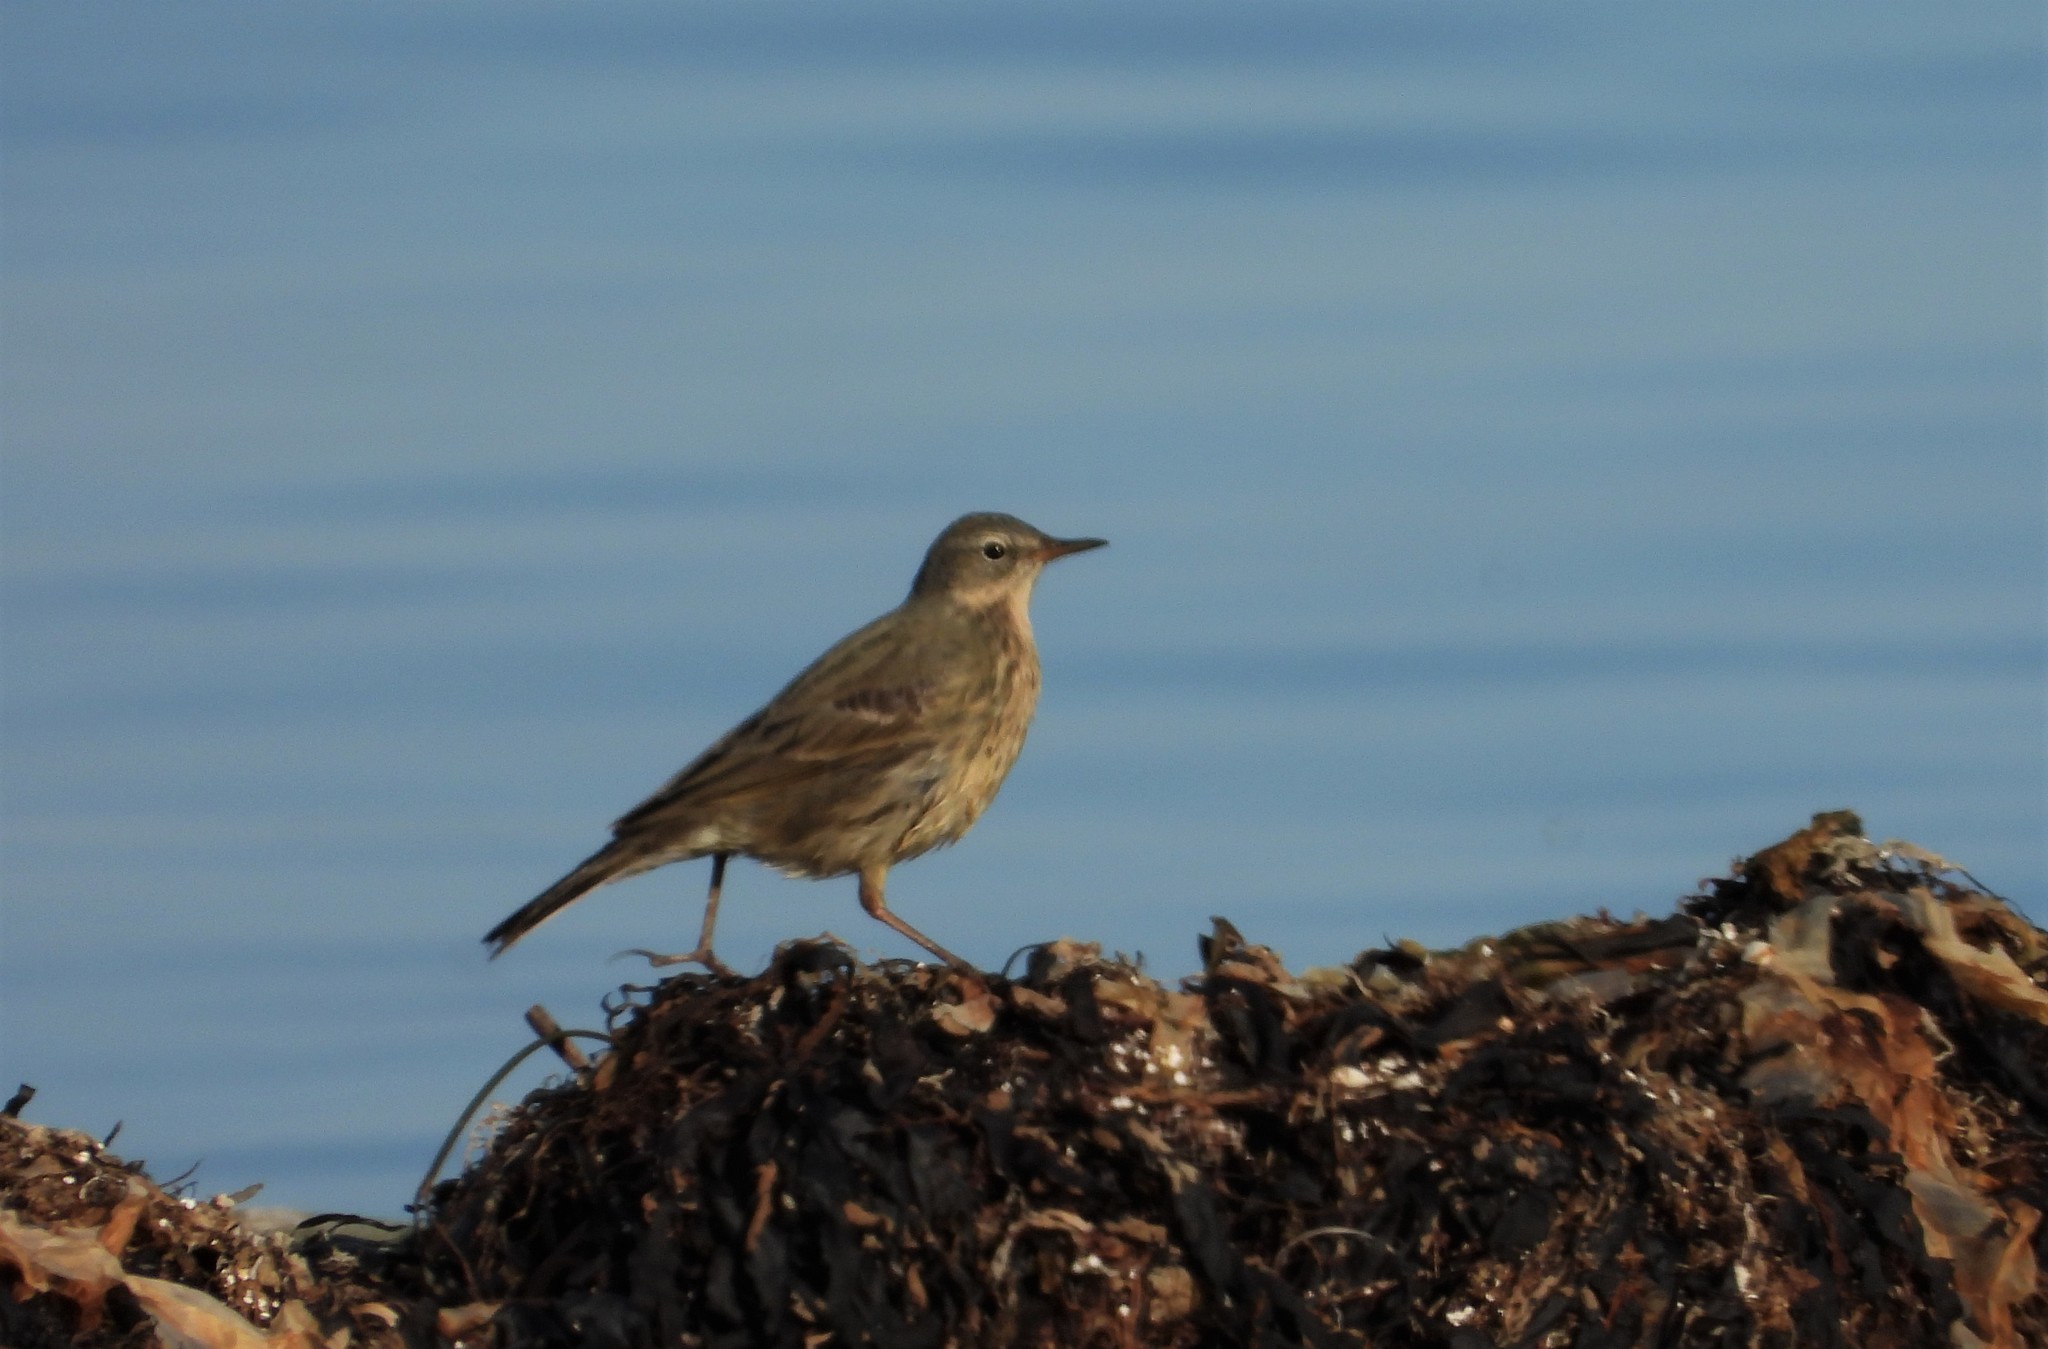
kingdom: Animalia
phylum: Chordata
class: Aves
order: Passeriformes
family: Motacillidae
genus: Anthus
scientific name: Anthus petrosus
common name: Eurasian rock pipit
